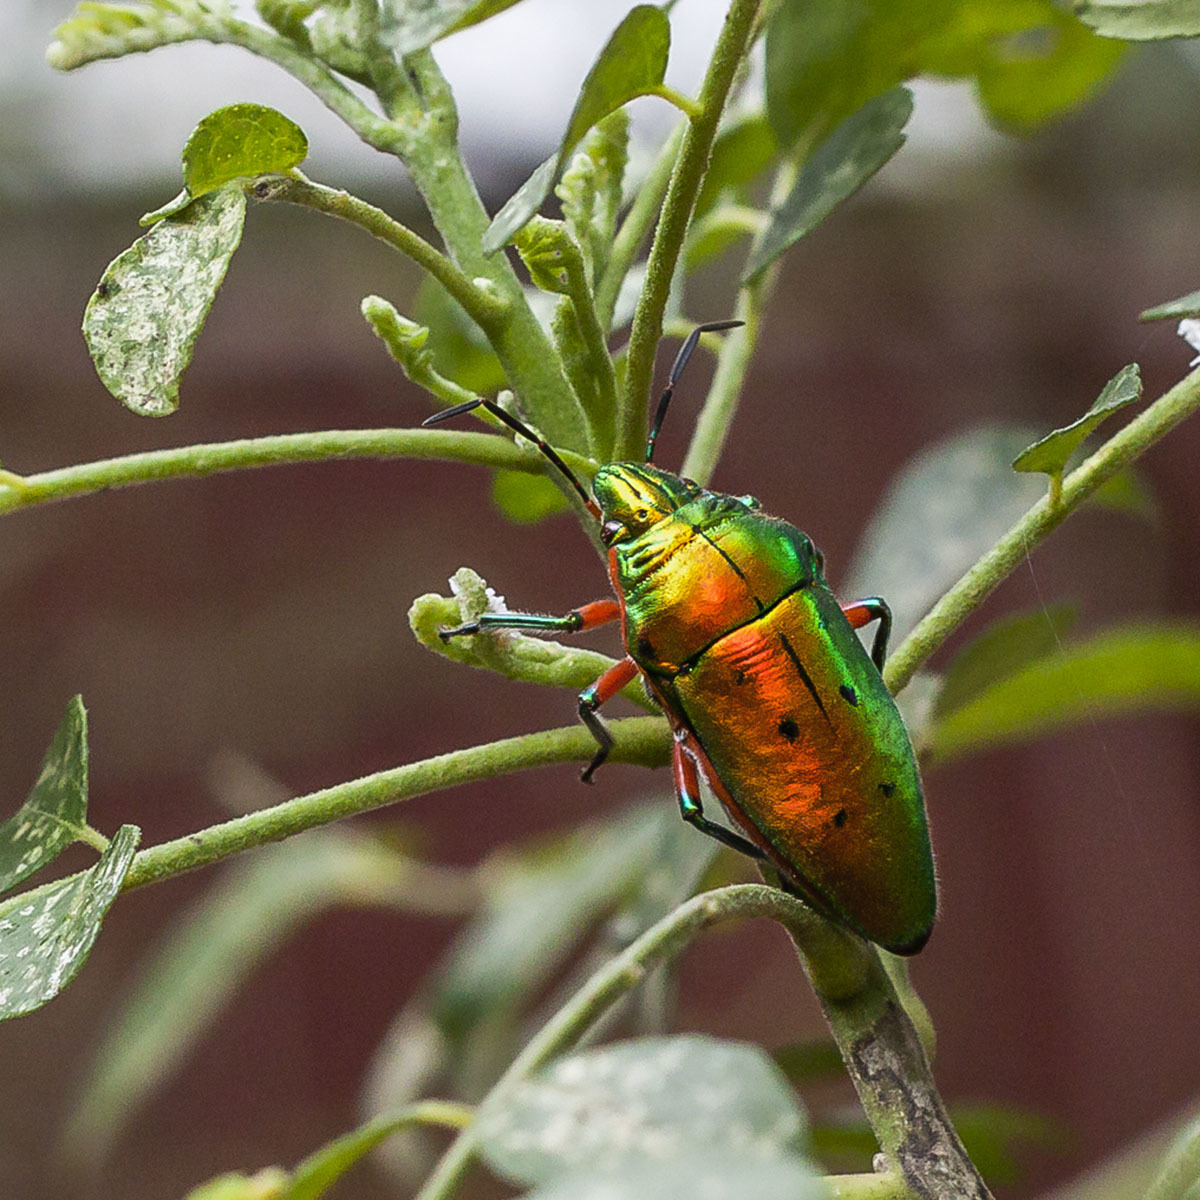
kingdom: Animalia
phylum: Arthropoda
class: Insecta
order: Hemiptera
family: Scutelleridae
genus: Scutellera
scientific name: Scutellera perplexa
